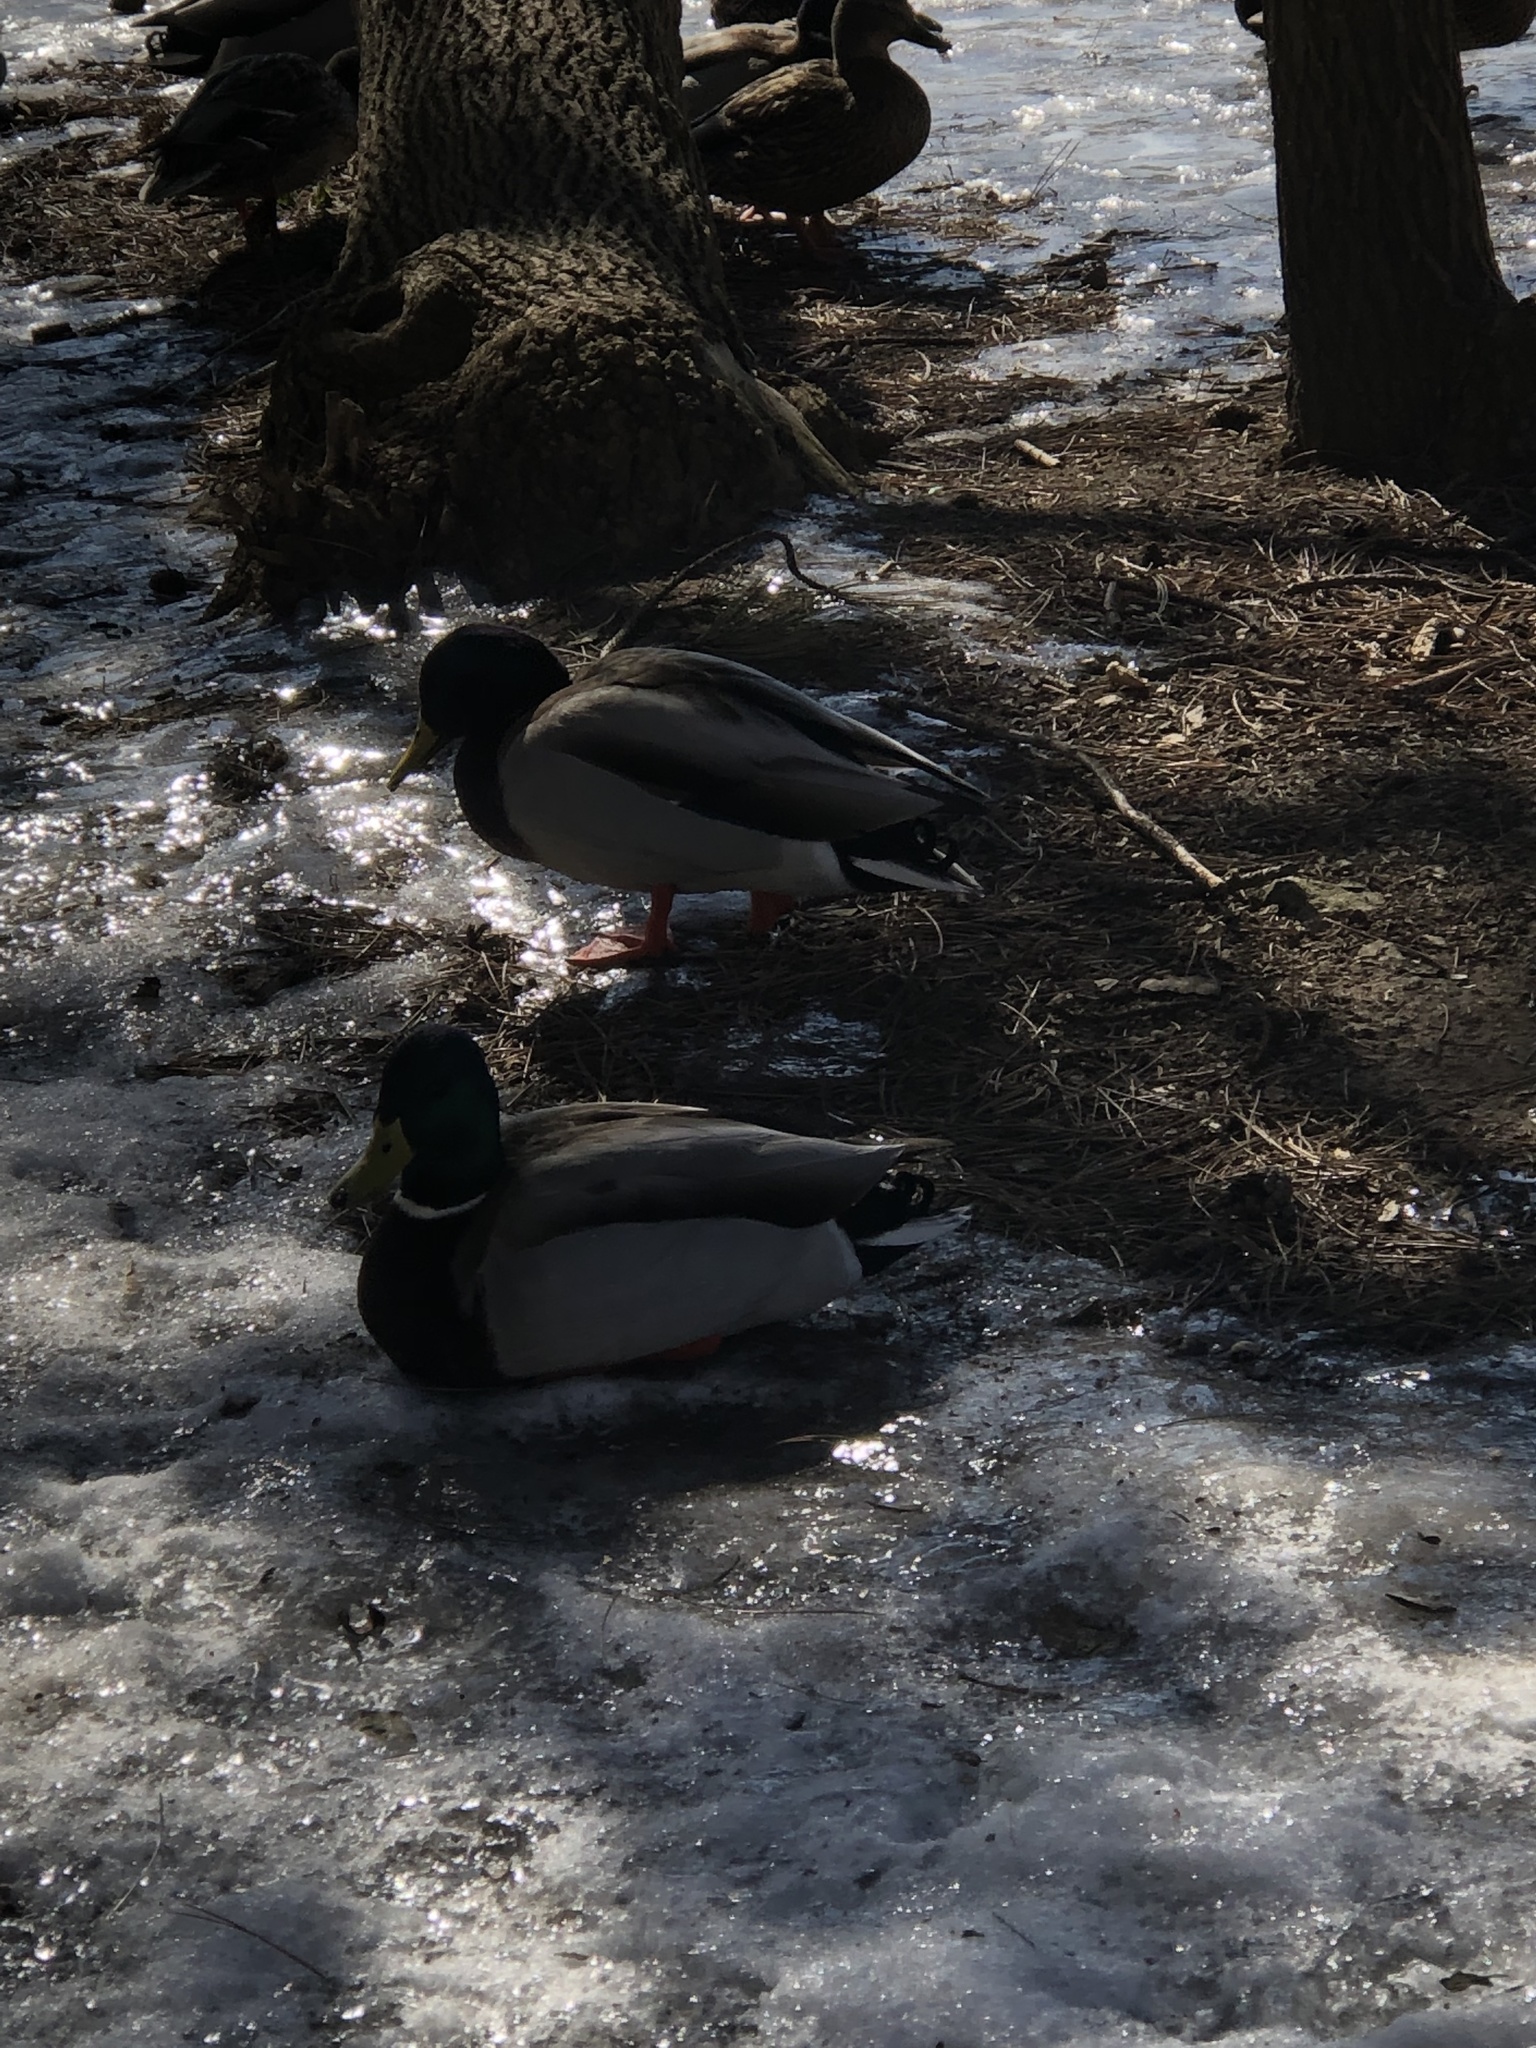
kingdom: Animalia
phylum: Chordata
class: Aves
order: Anseriformes
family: Anatidae
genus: Anas
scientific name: Anas platyrhynchos
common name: Mallard
